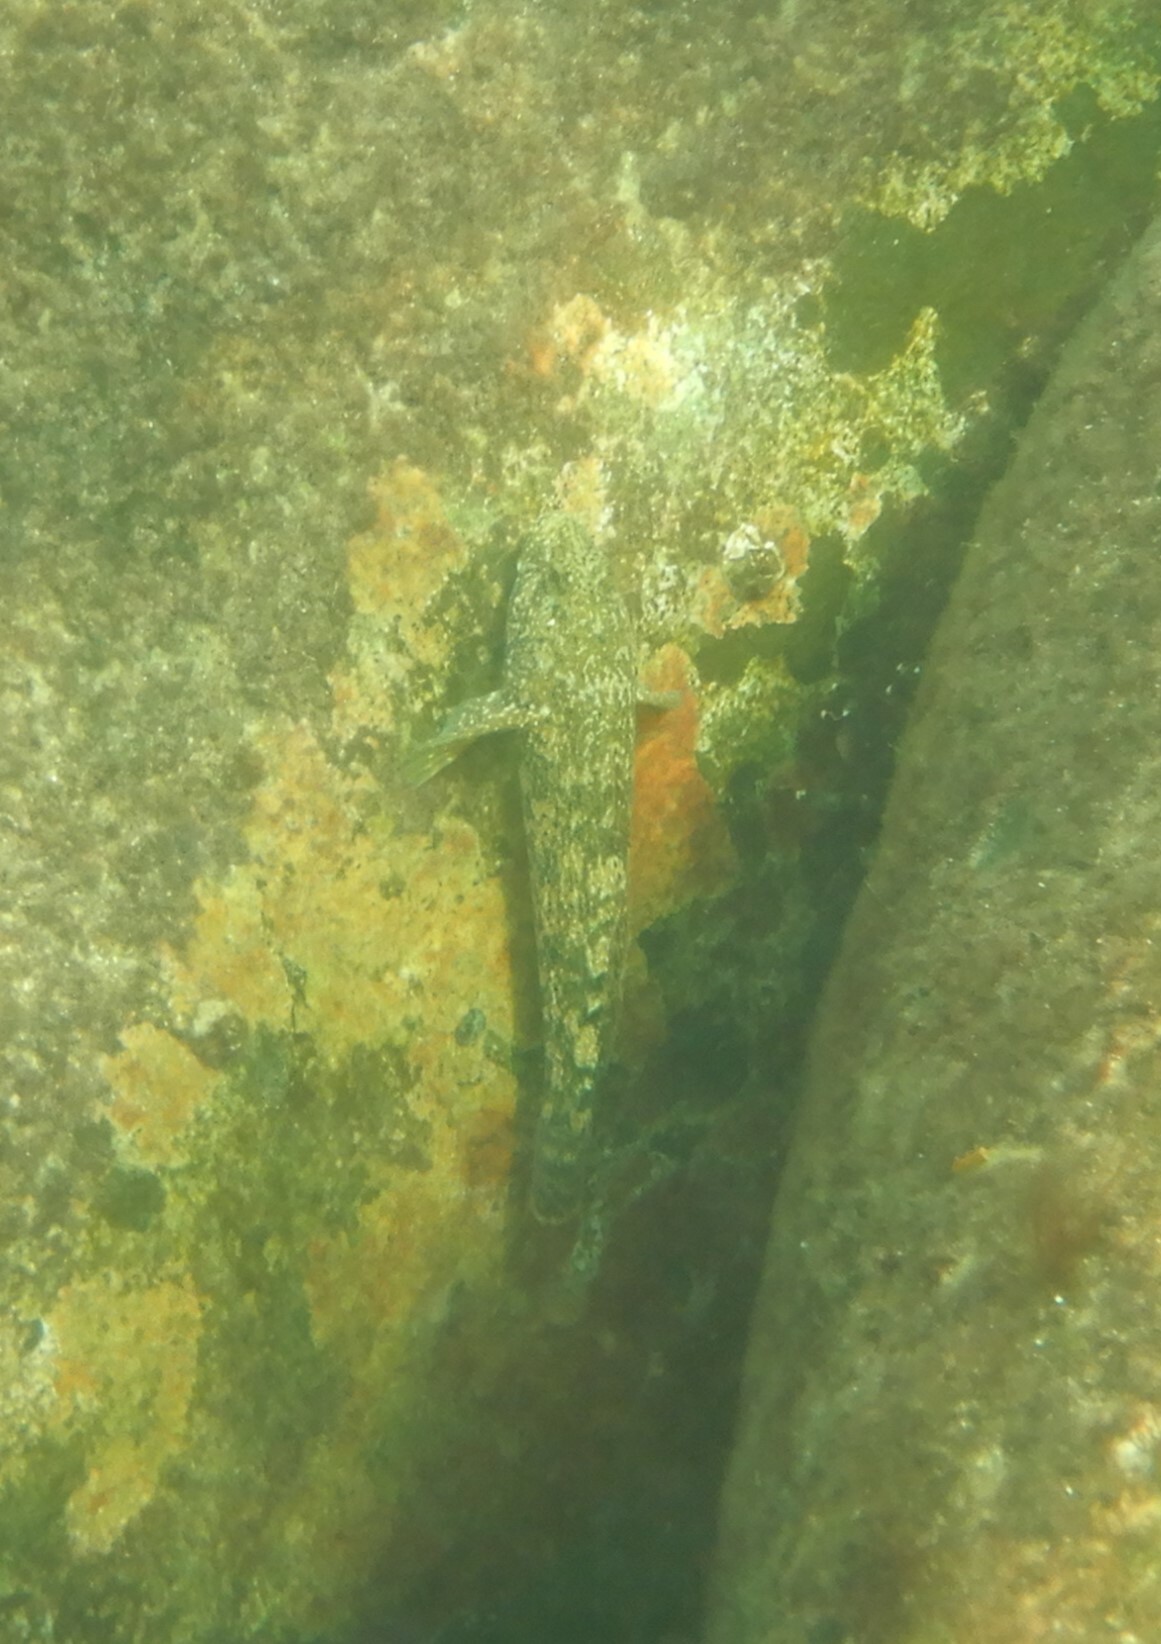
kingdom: Animalia
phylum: Chordata
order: Perciformes
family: Gobiidae
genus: Gobius
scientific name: Gobius cobitis
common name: Giant goby
